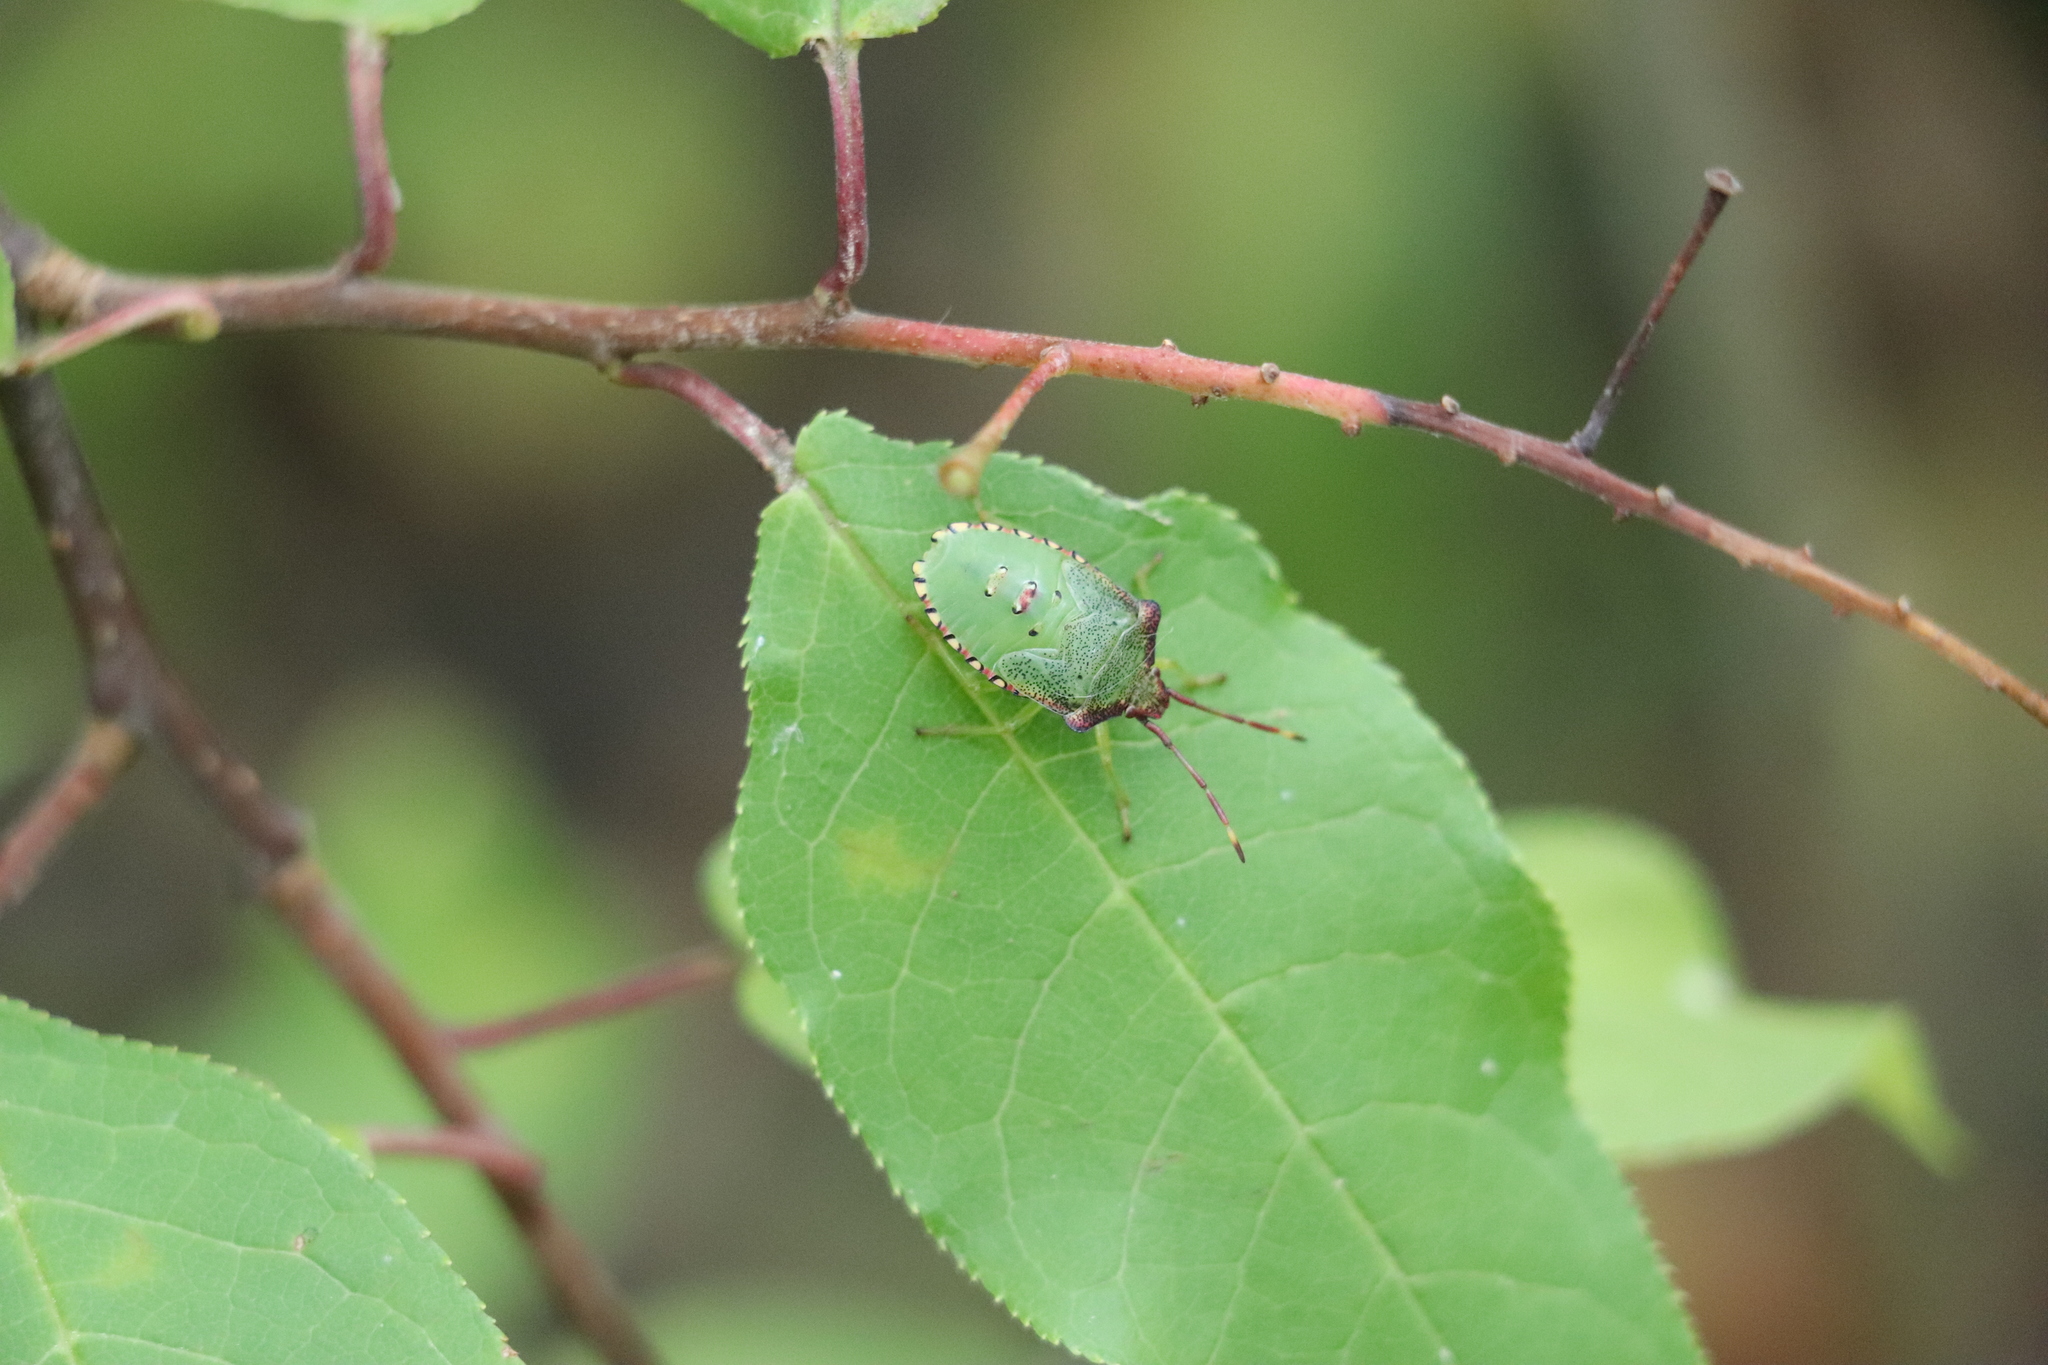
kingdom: Animalia
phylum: Arthropoda
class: Insecta
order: Hemiptera
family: Acanthosomatidae
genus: Acanthosoma
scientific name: Acanthosoma haemorrhoidale
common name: Hawthorn shieldbug
